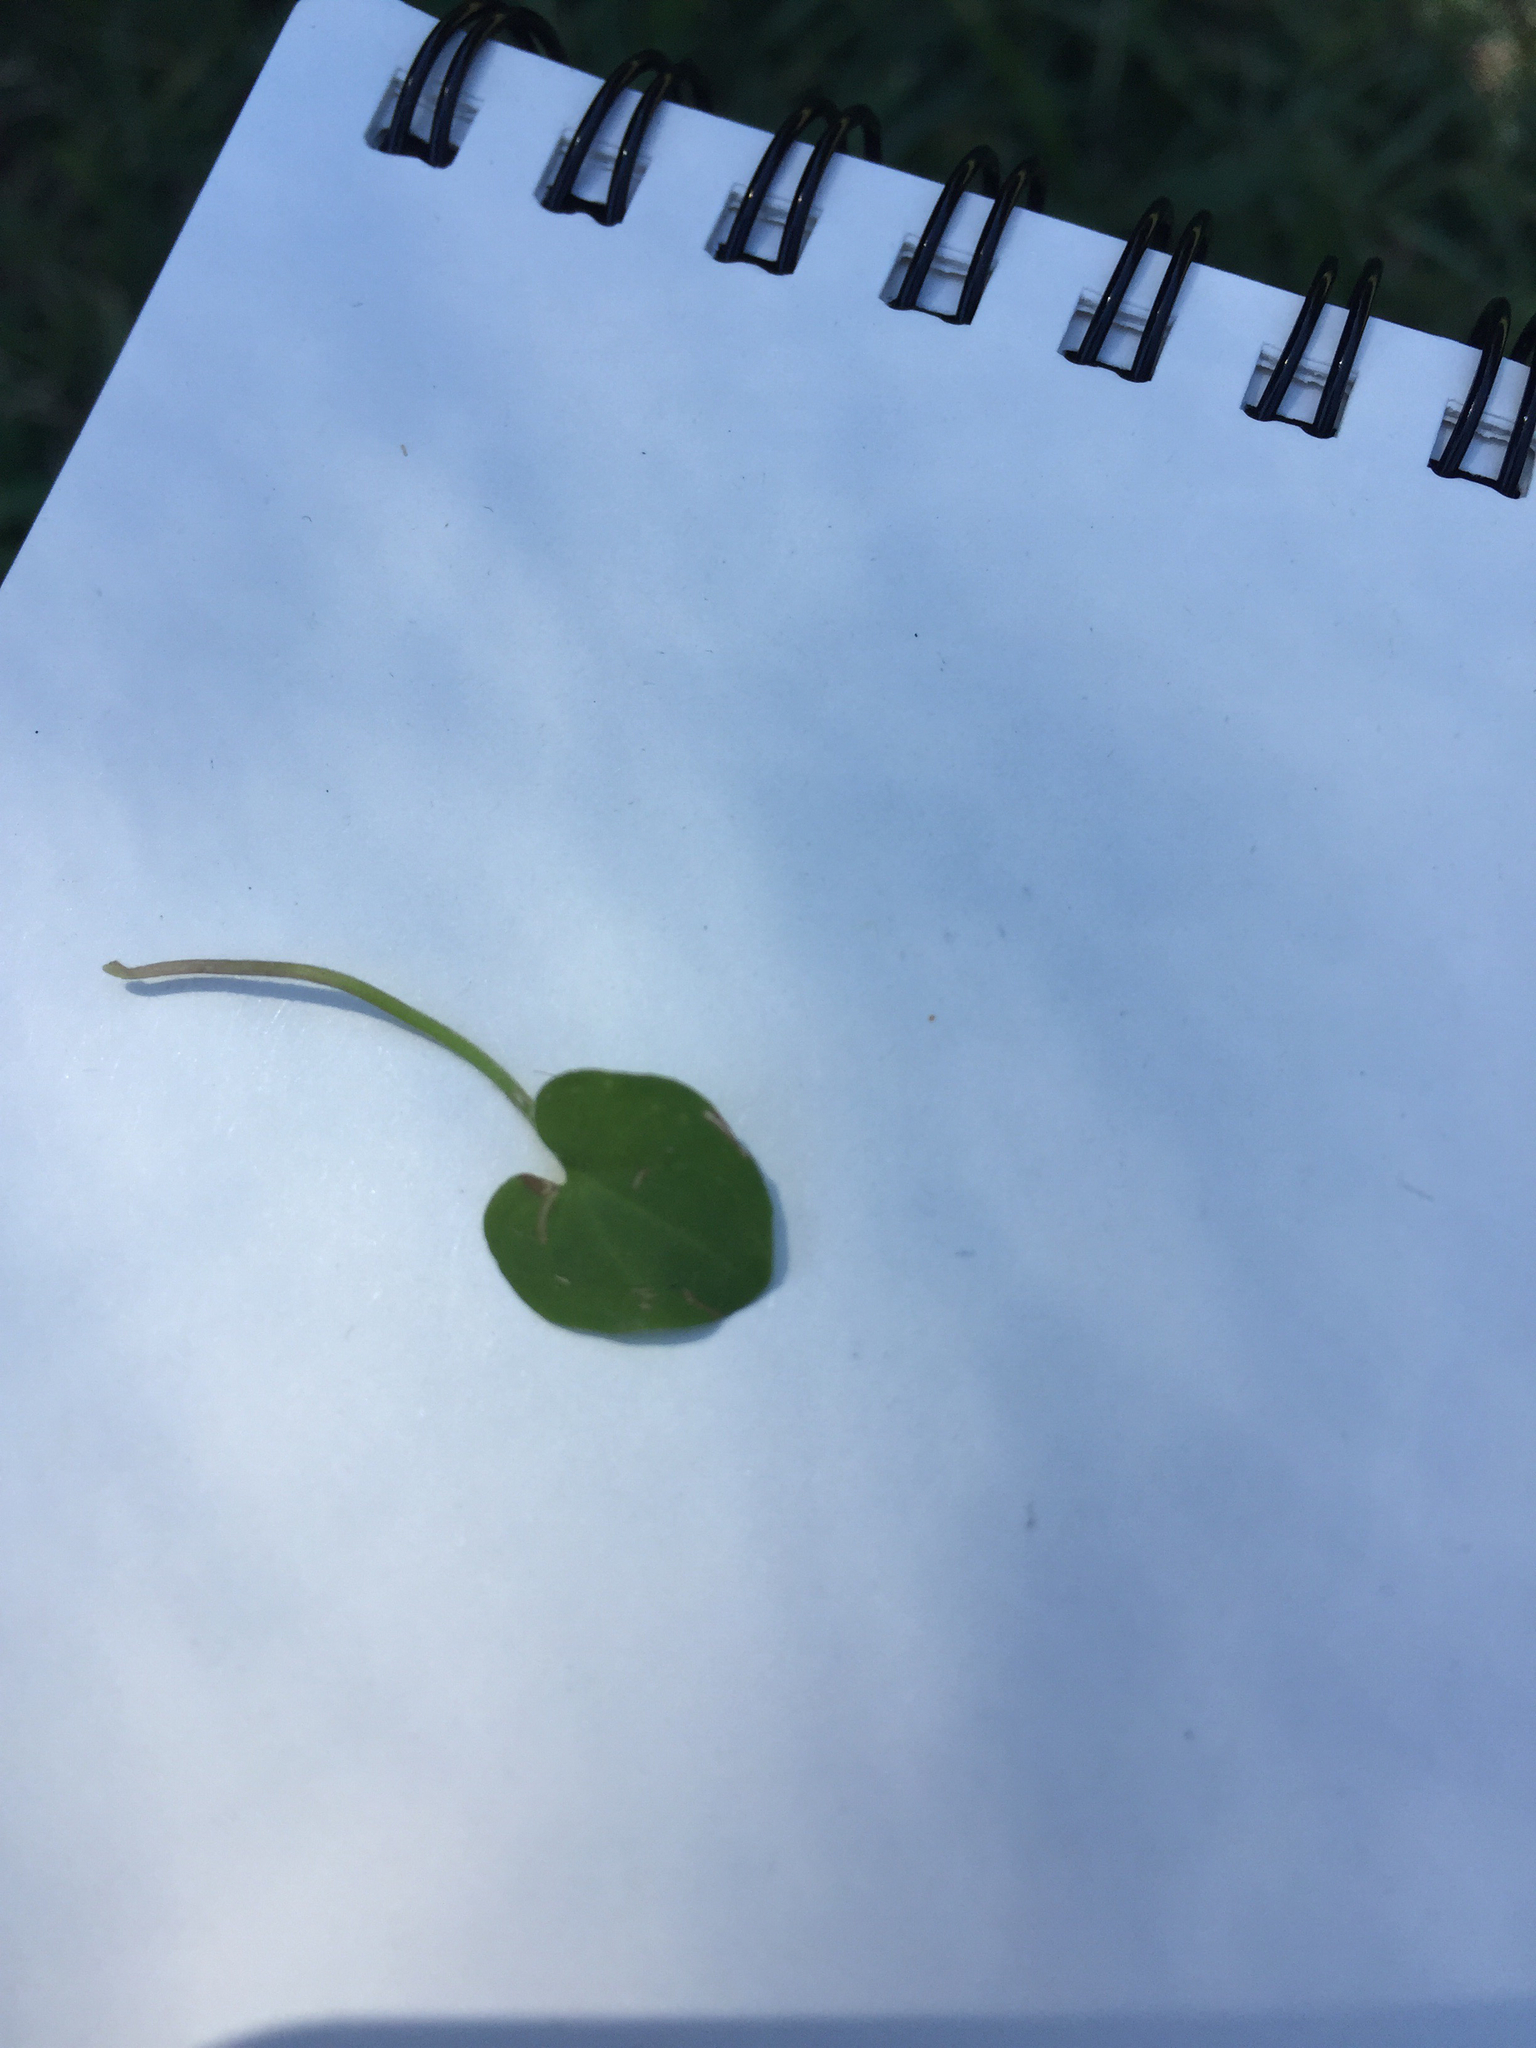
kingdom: Plantae
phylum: Tracheophyta
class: Magnoliopsida
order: Solanales
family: Convolvulaceae
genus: Dichondra
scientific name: Dichondra carolinensis
